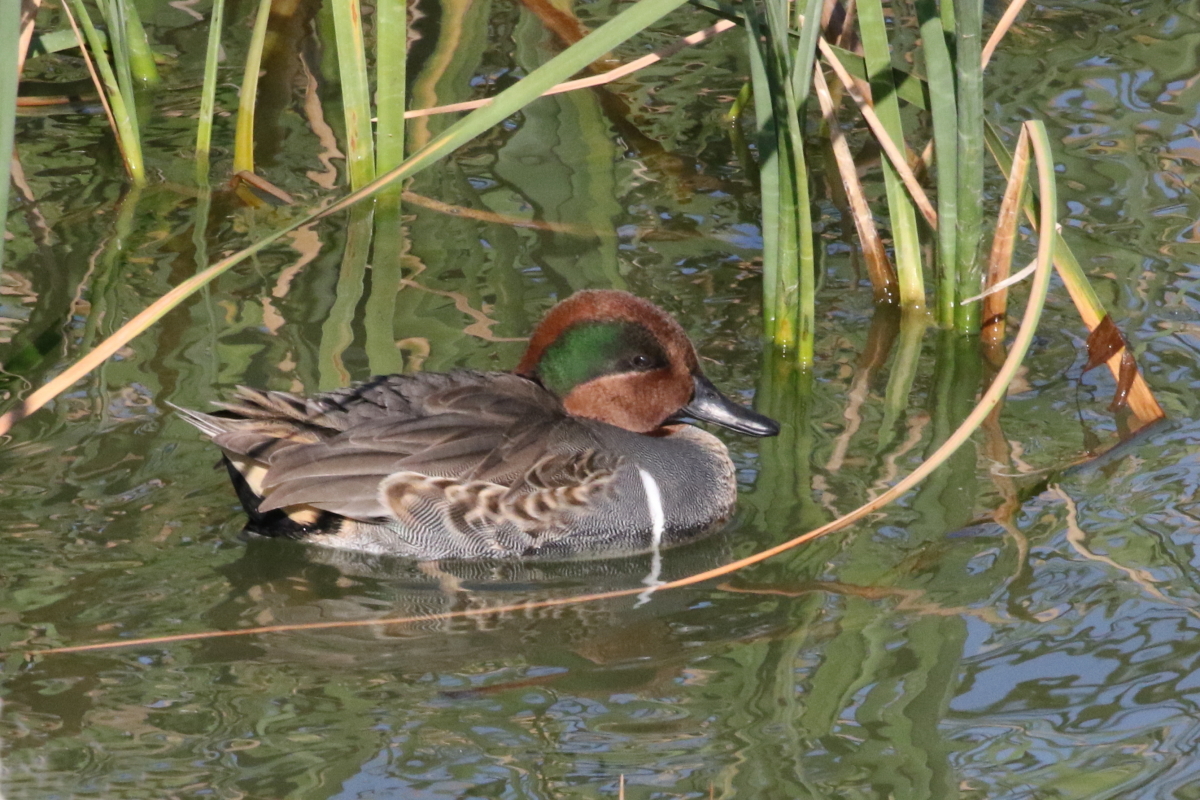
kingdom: Animalia
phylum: Chordata
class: Aves
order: Anseriformes
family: Anatidae
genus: Anas
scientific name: Anas crecca
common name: Eurasian teal
